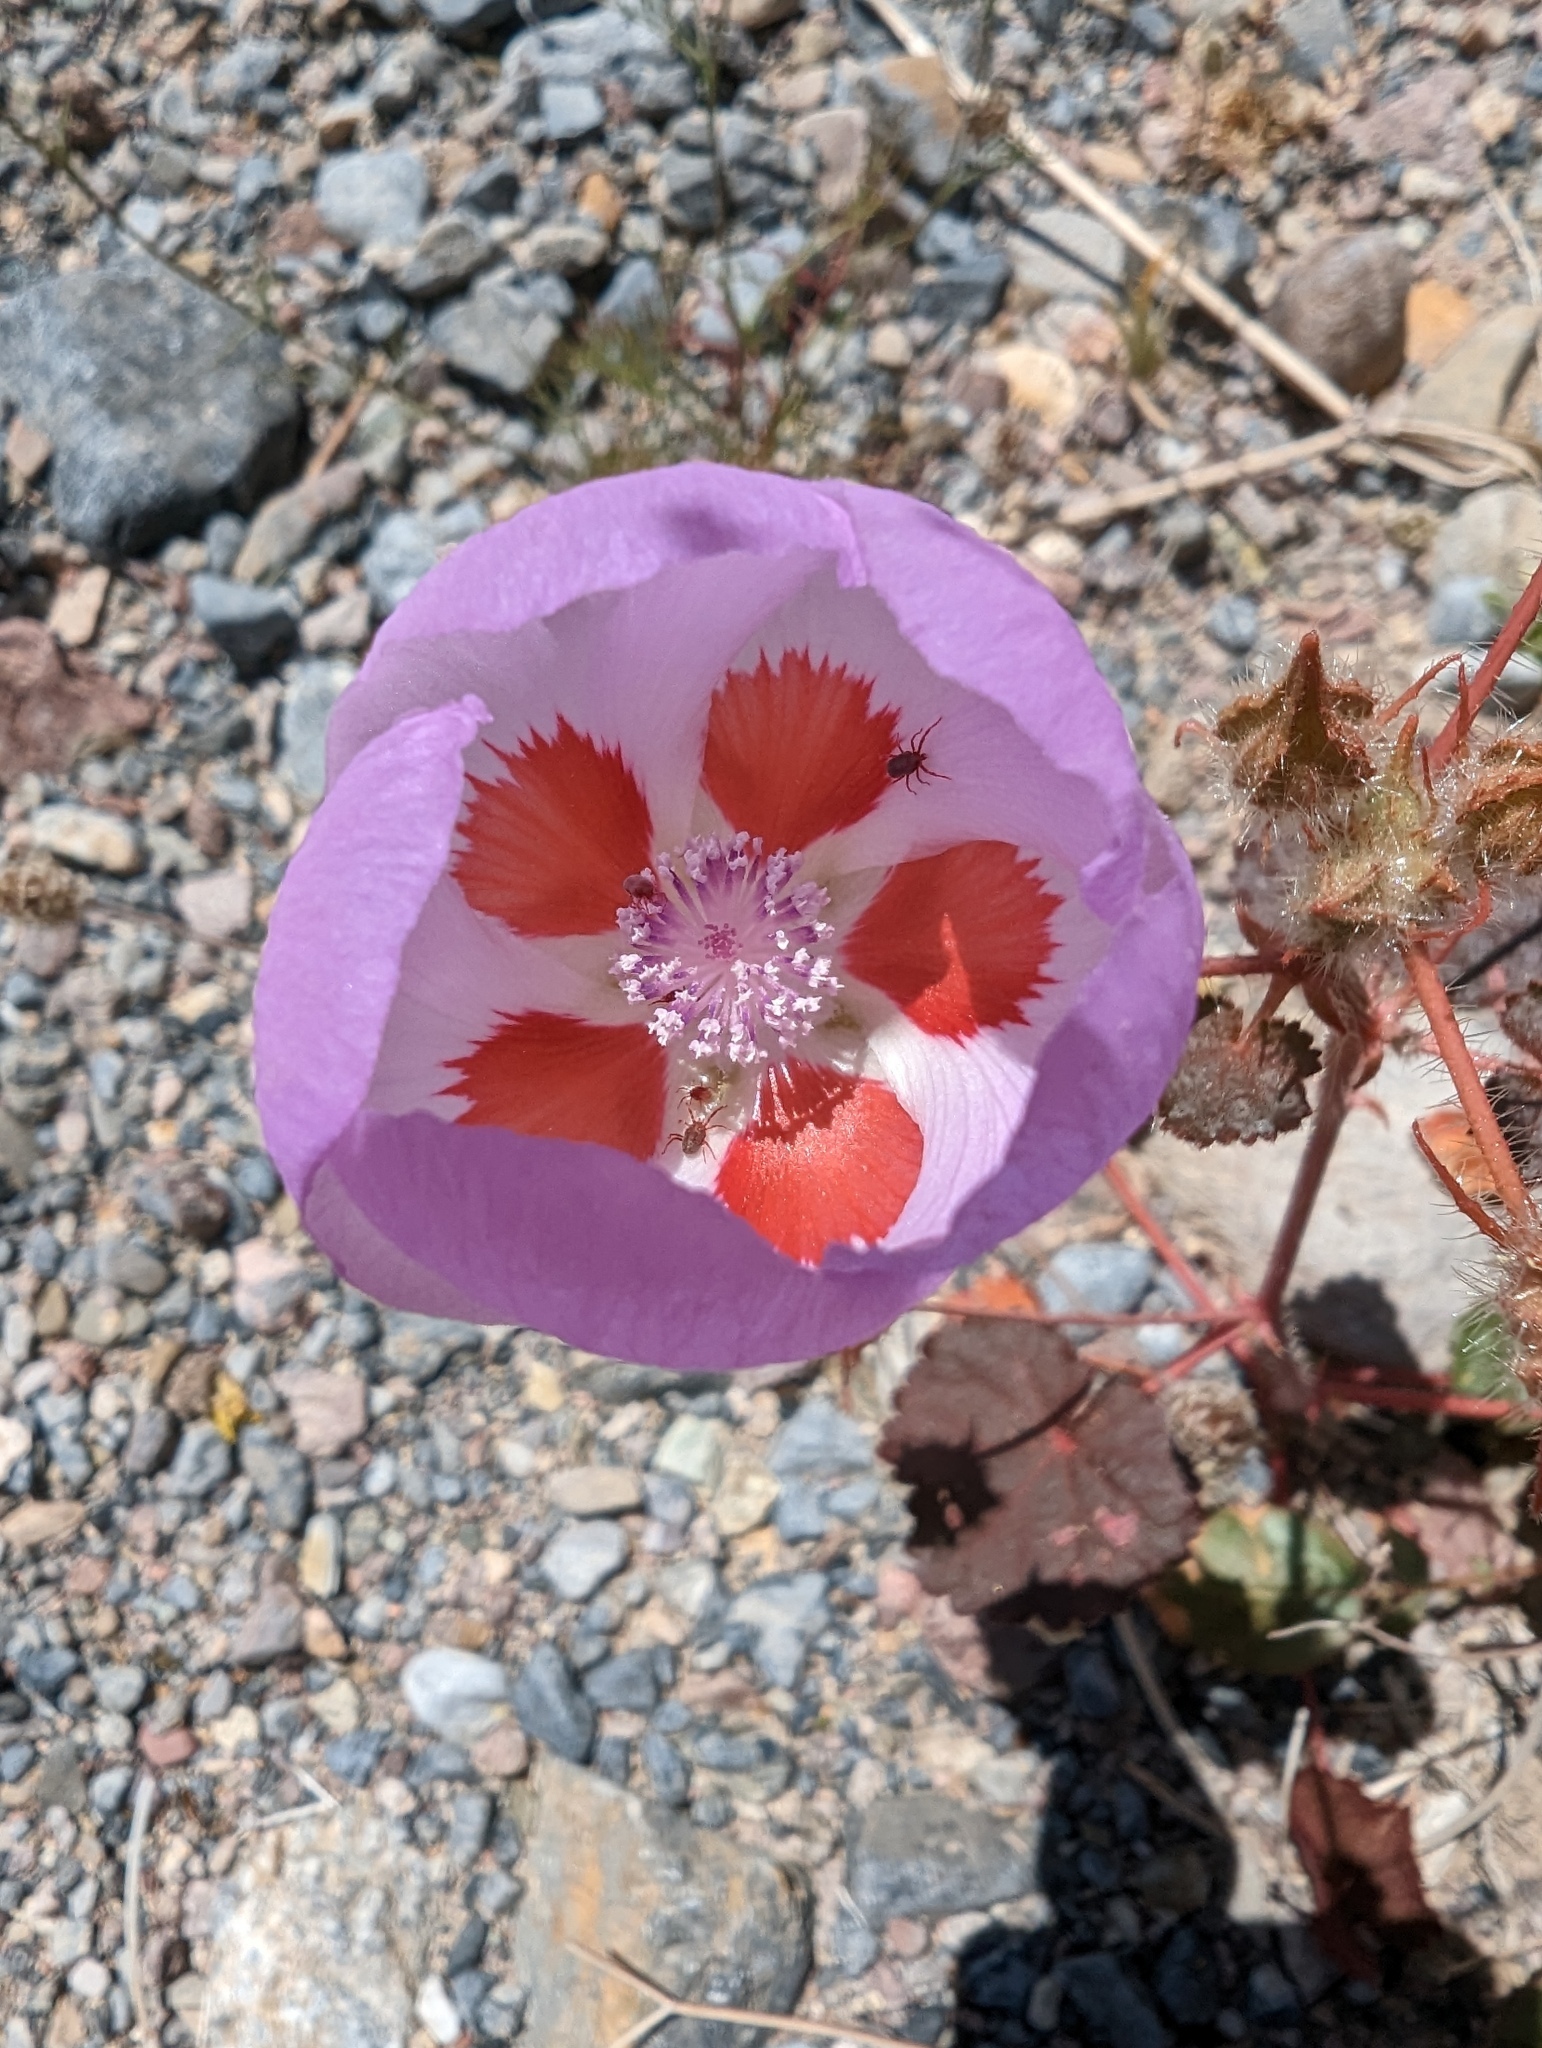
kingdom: Plantae
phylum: Tracheophyta
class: Magnoliopsida
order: Malvales
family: Malvaceae
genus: Eremalche
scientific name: Eremalche rotundifolia
